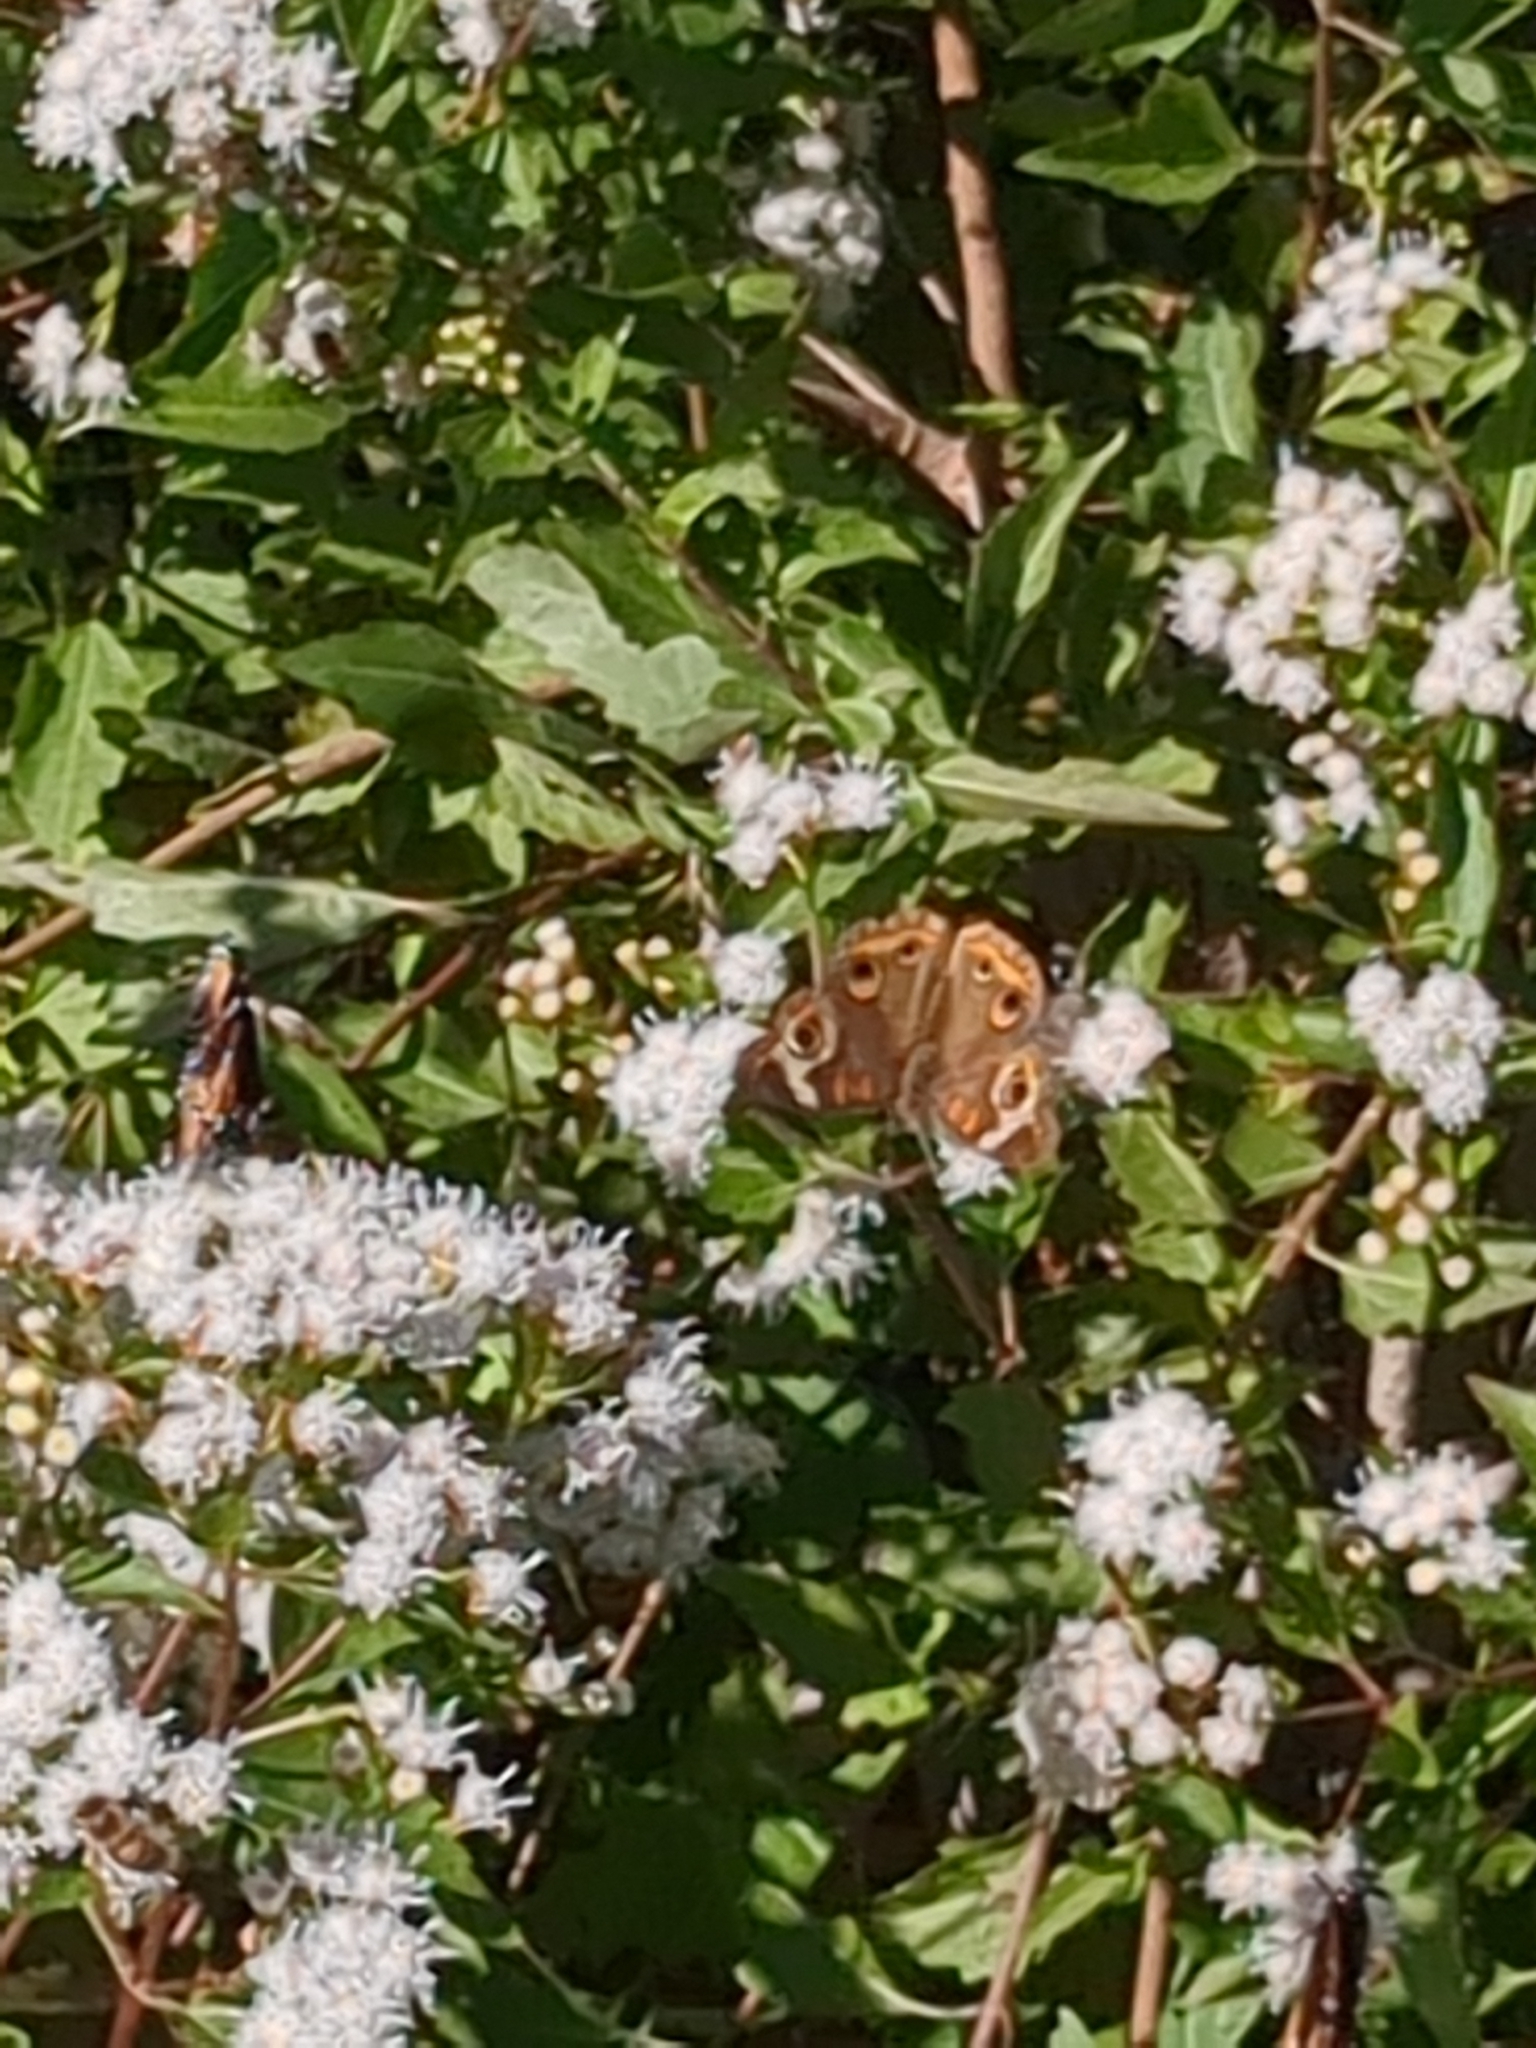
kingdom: Animalia
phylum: Arthropoda
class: Insecta
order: Lepidoptera
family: Nymphalidae
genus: Junonia
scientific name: Junonia coenia
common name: Common buckeye
